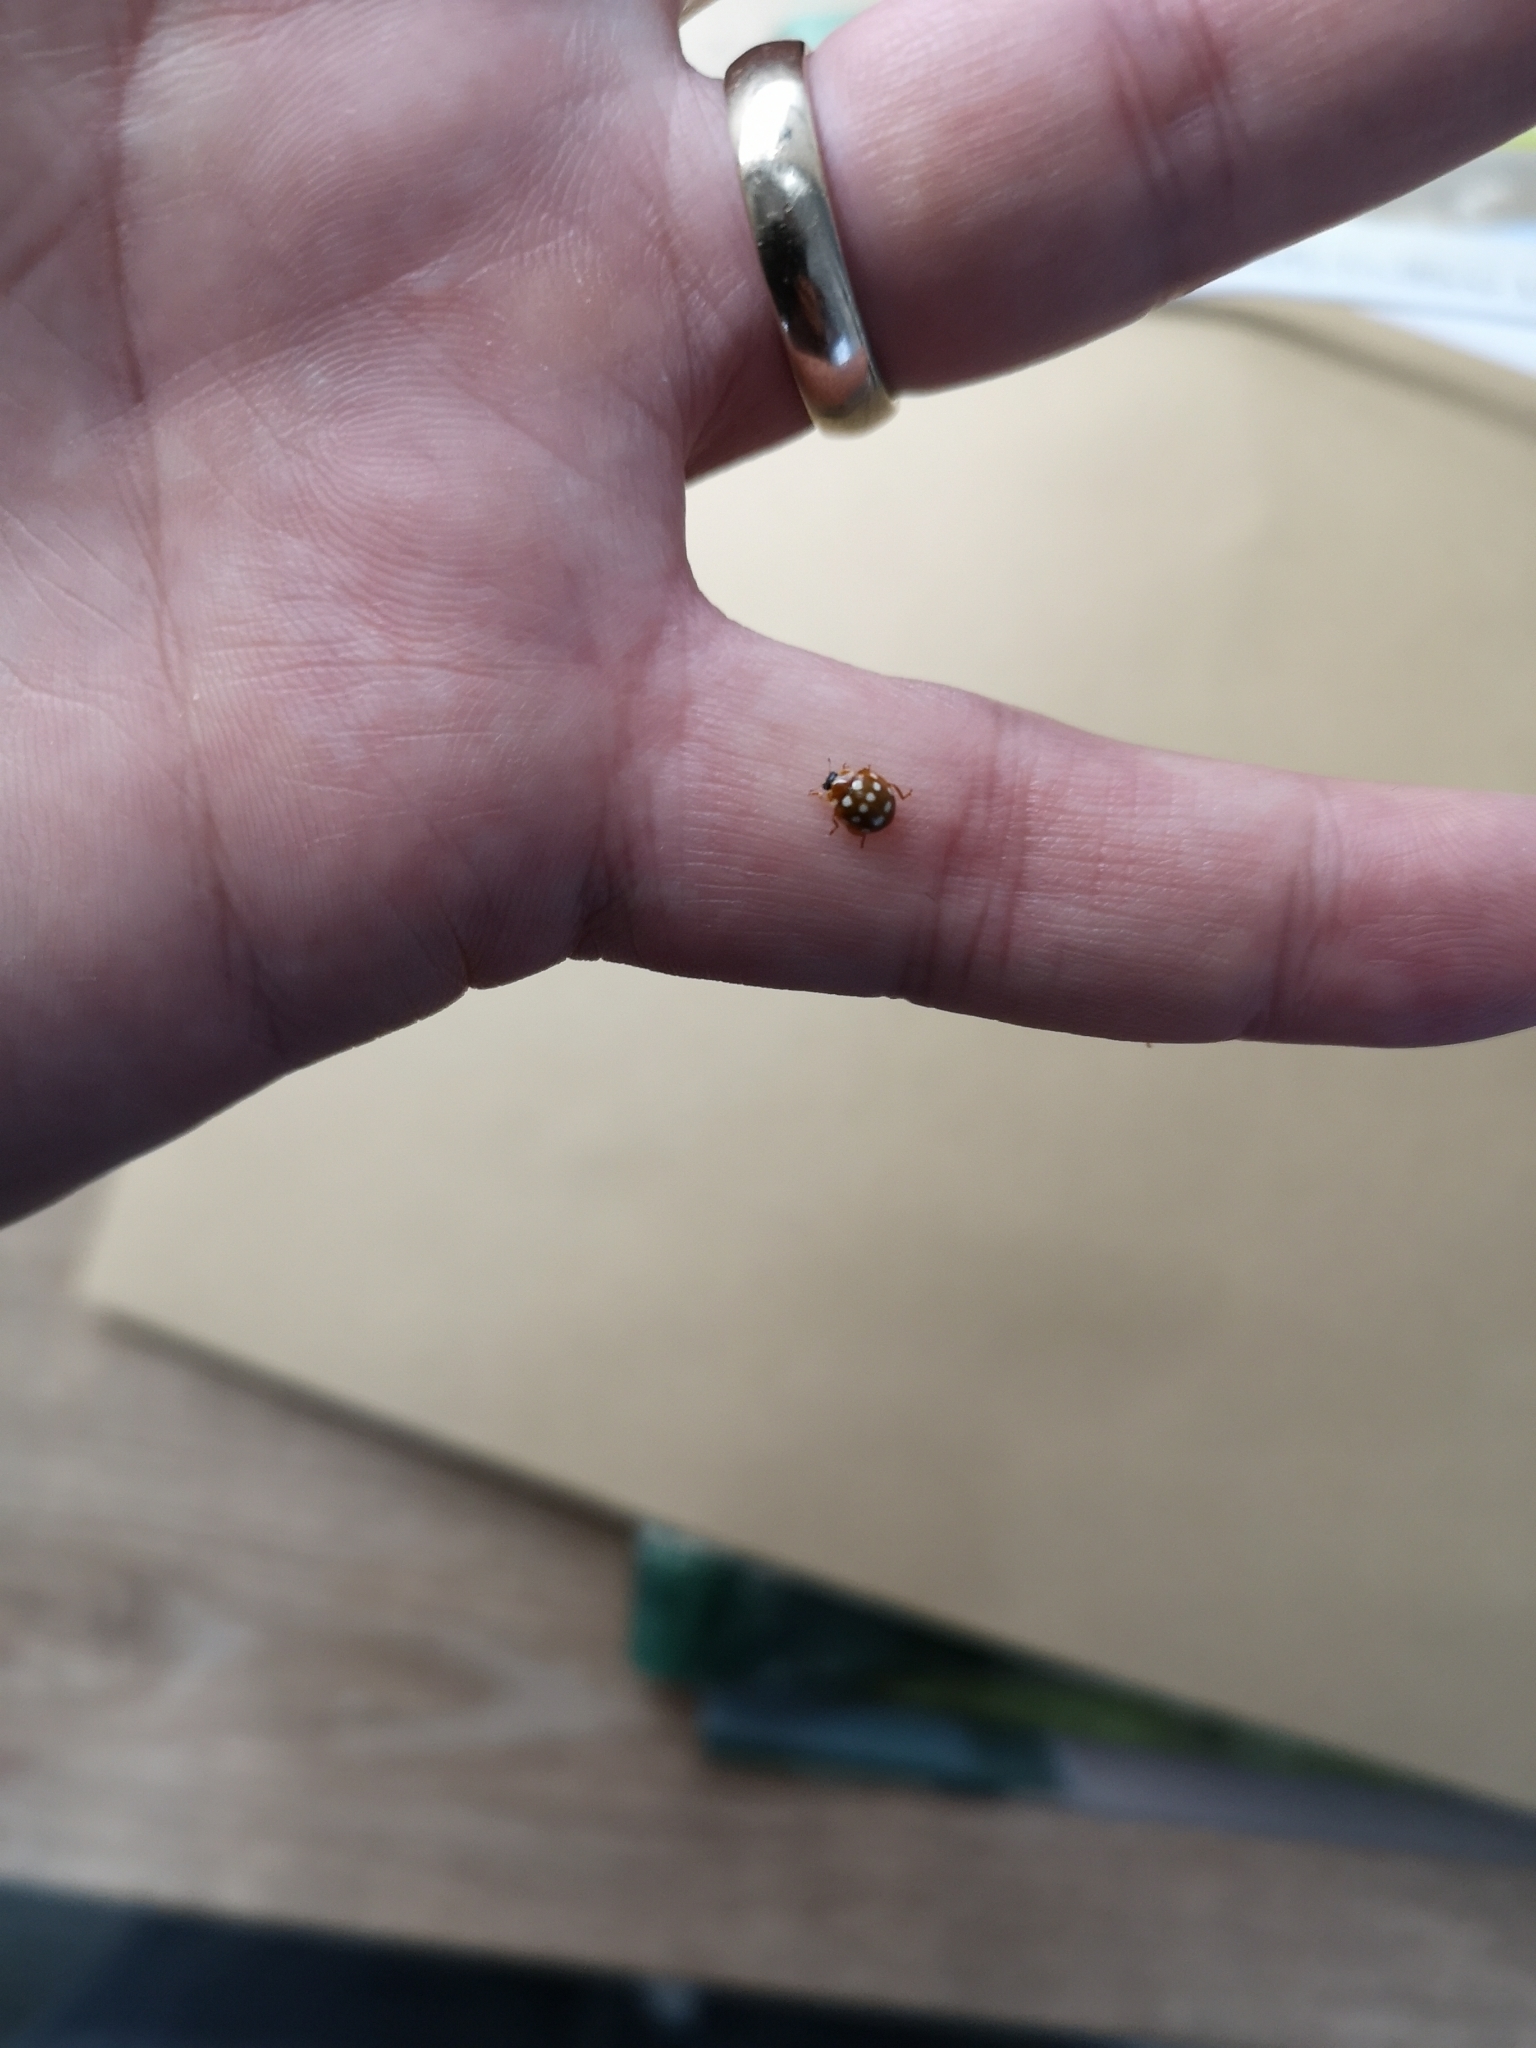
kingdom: Animalia
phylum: Arthropoda
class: Insecta
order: Coleoptera
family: Coccinellidae
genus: Calvia
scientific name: Calvia quatuordecimguttata
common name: Cream-spot ladybird
